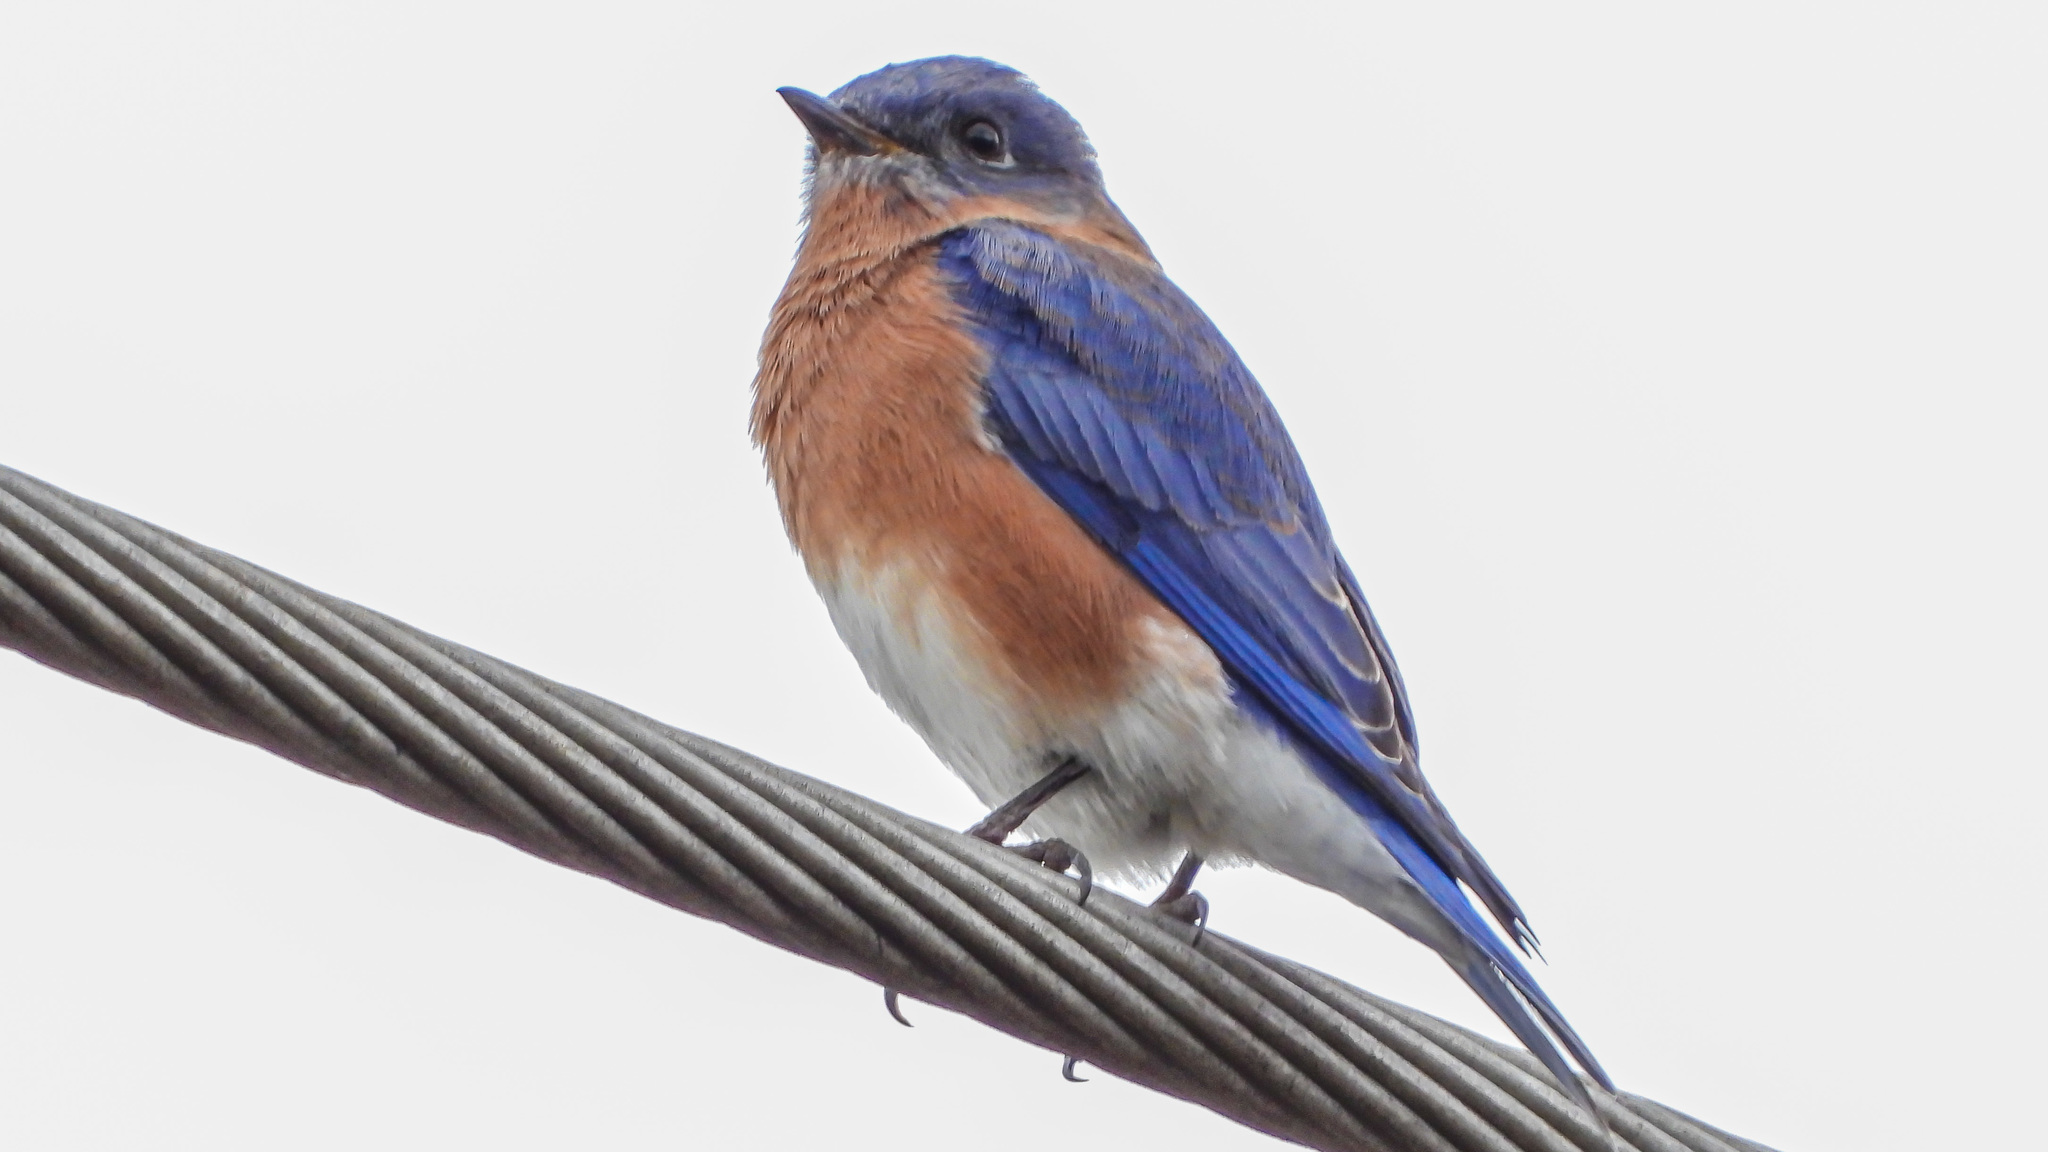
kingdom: Animalia
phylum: Chordata
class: Aves
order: Passeriformes
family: Turdidae
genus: Sialia
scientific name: Sialia sialis
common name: Eastern bluebird
